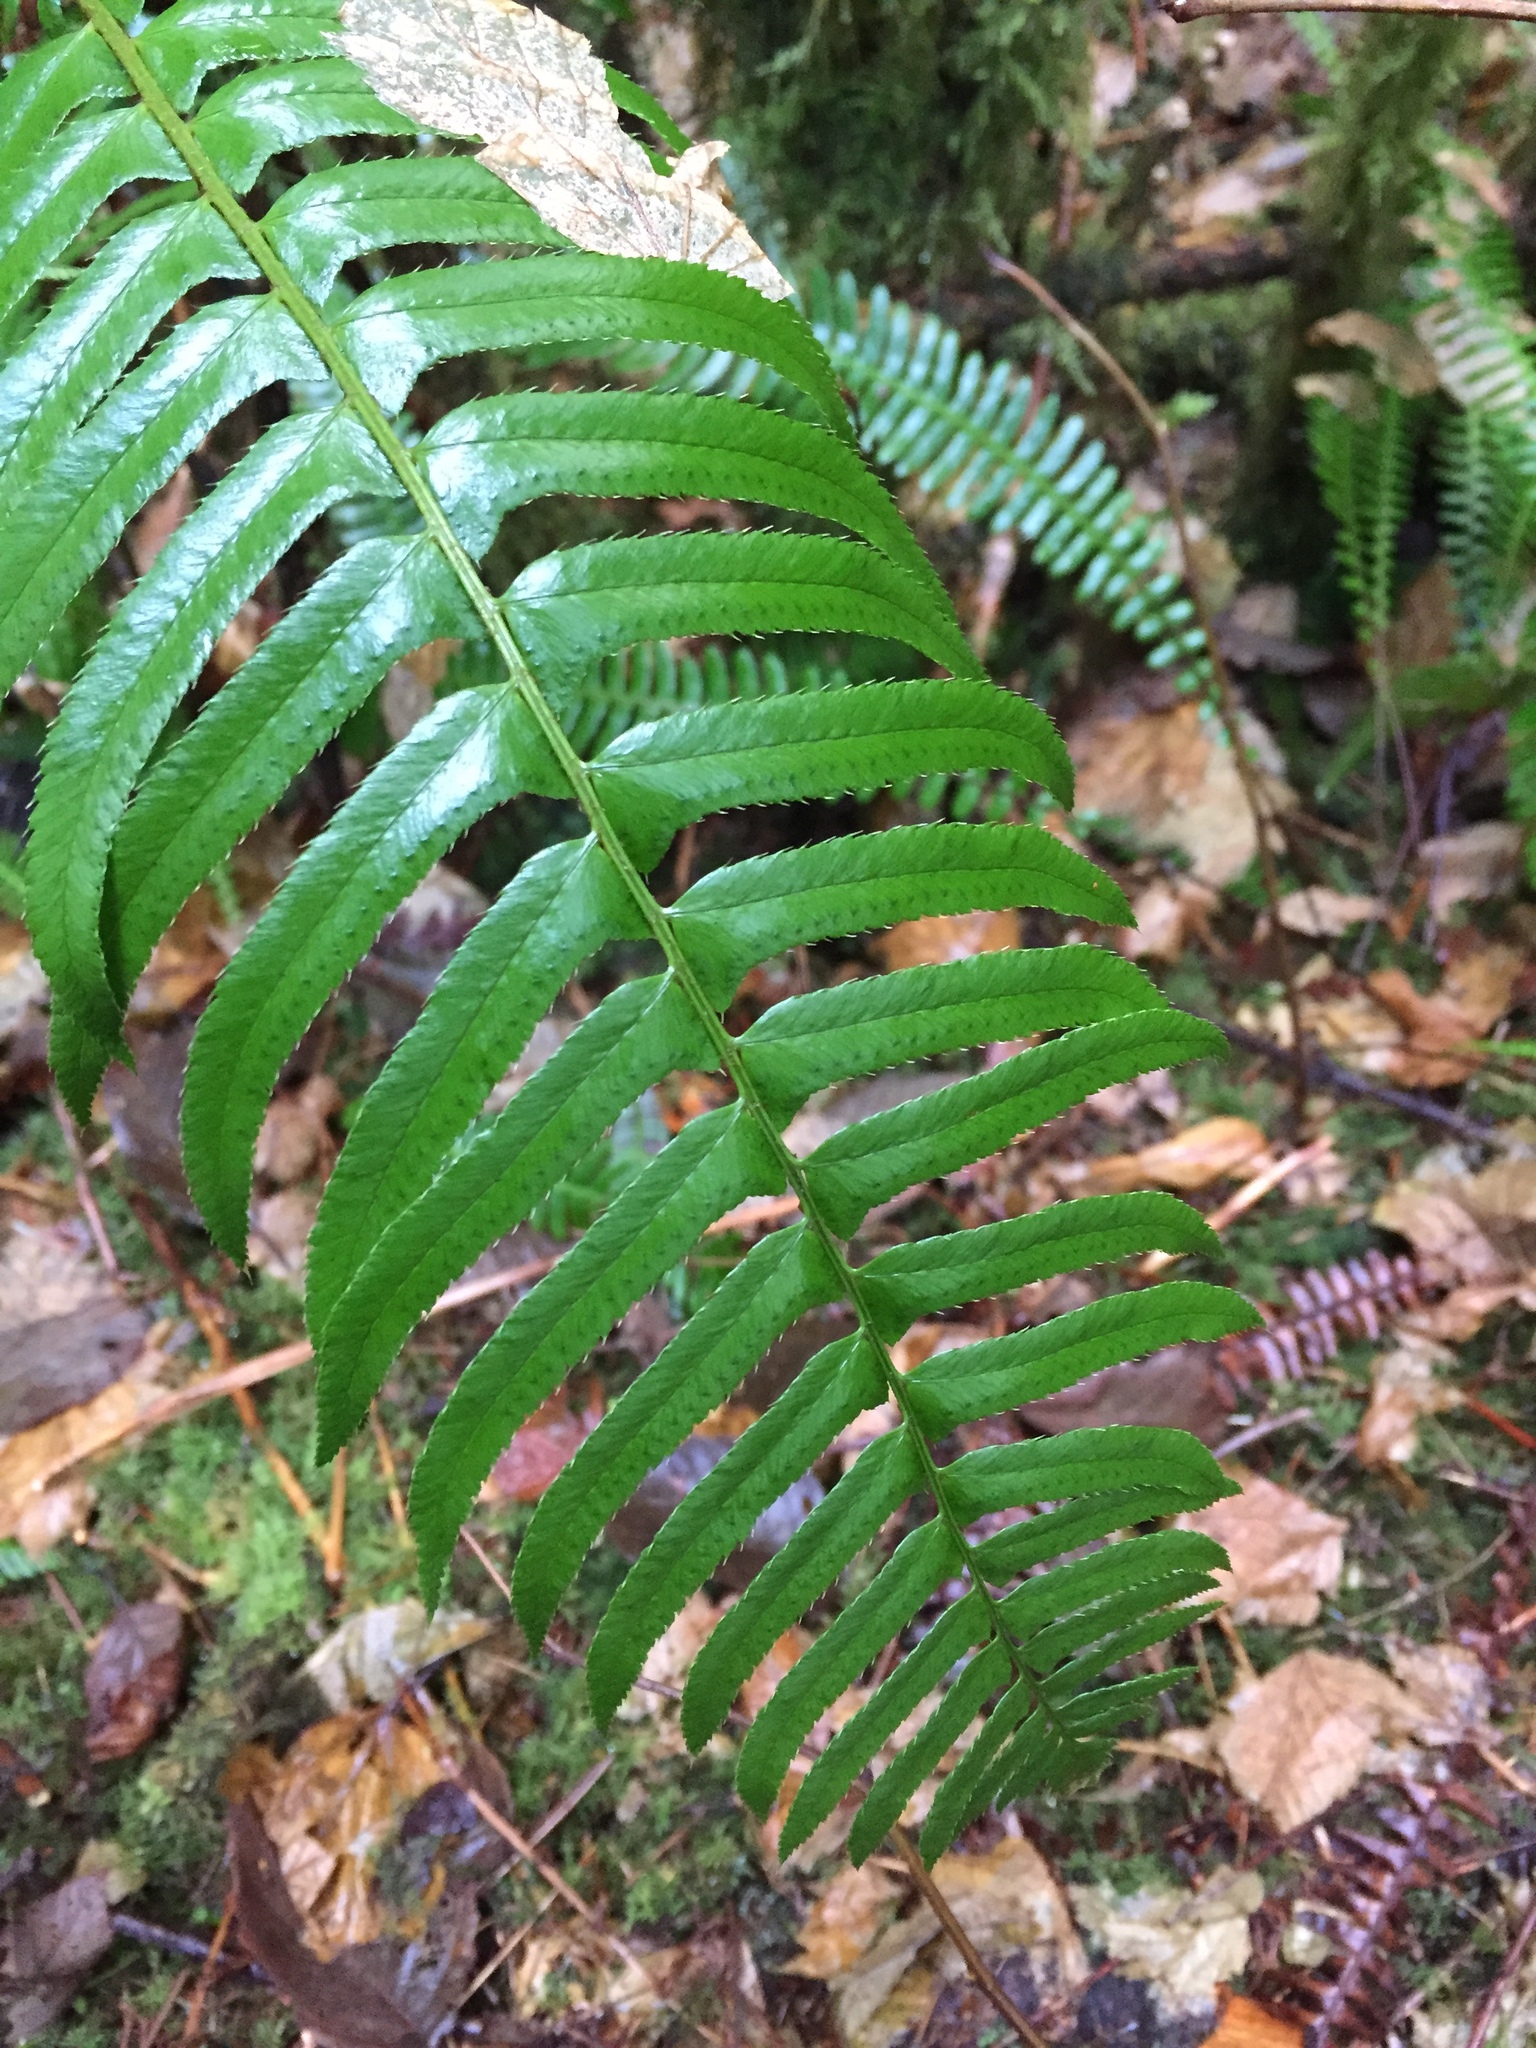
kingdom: Plantae
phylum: Tracheophyta
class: Polypodiopsida
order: Polypodiales
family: Dryopteridaceae
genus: Polystichum
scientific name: Polystichum munitum
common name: Western sword-fern
